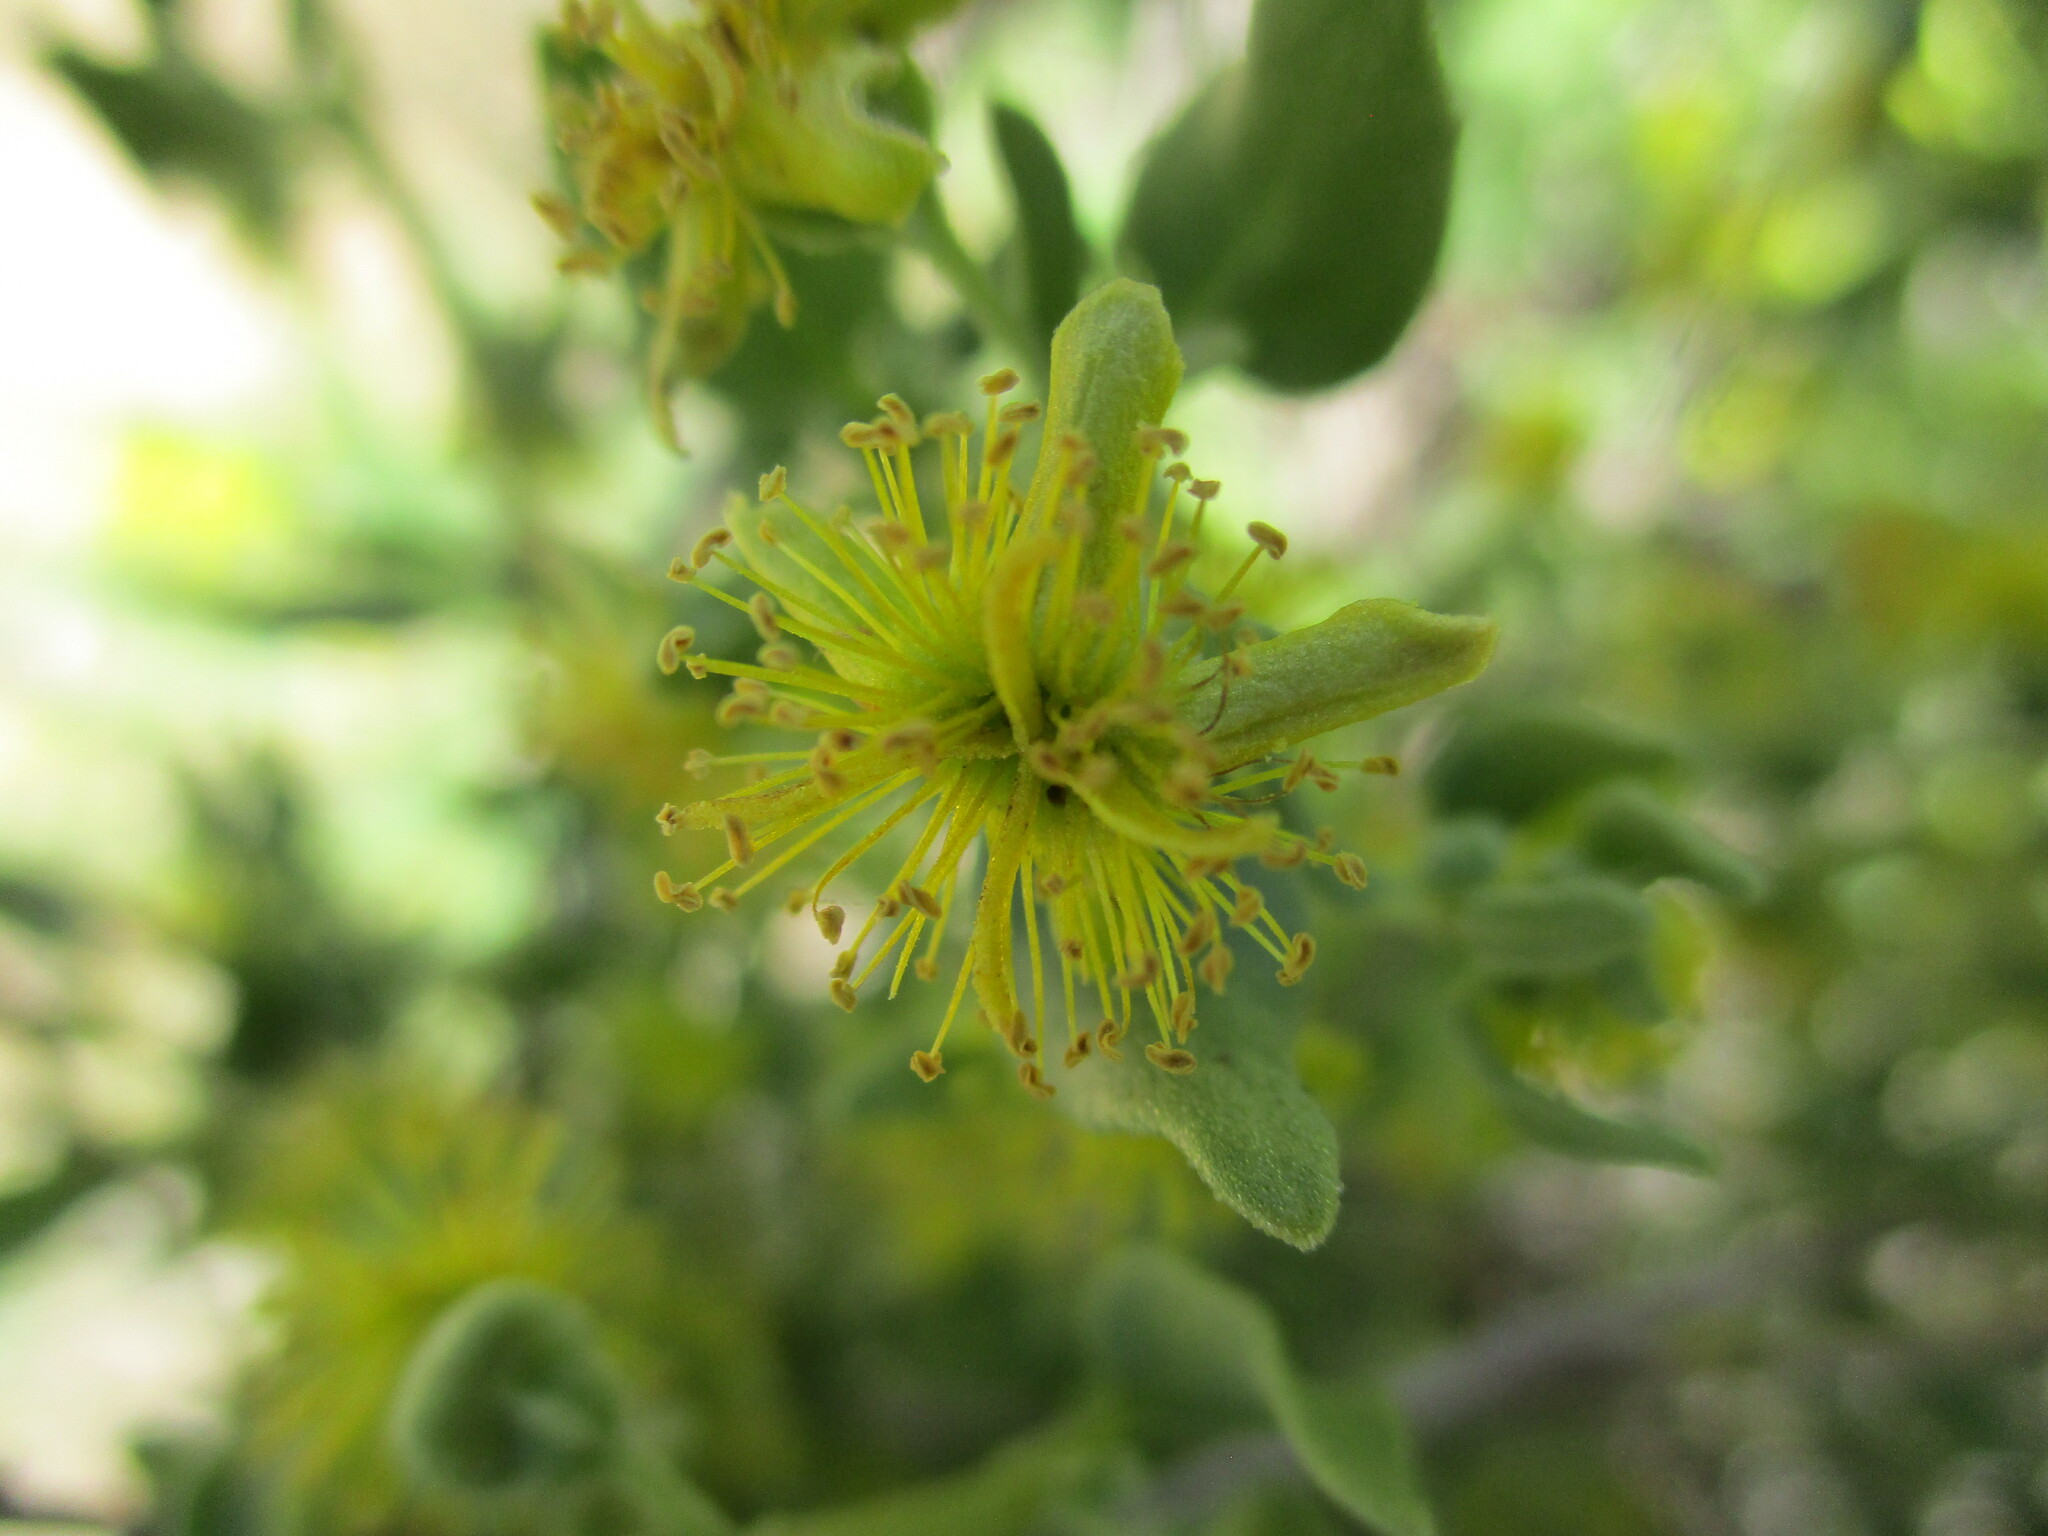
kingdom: Plantae
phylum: Tracheophyta
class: Magnoliopsida
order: Caryophyllales
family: Aizoaceae
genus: Tetragonia
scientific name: Tetragonia calycina
